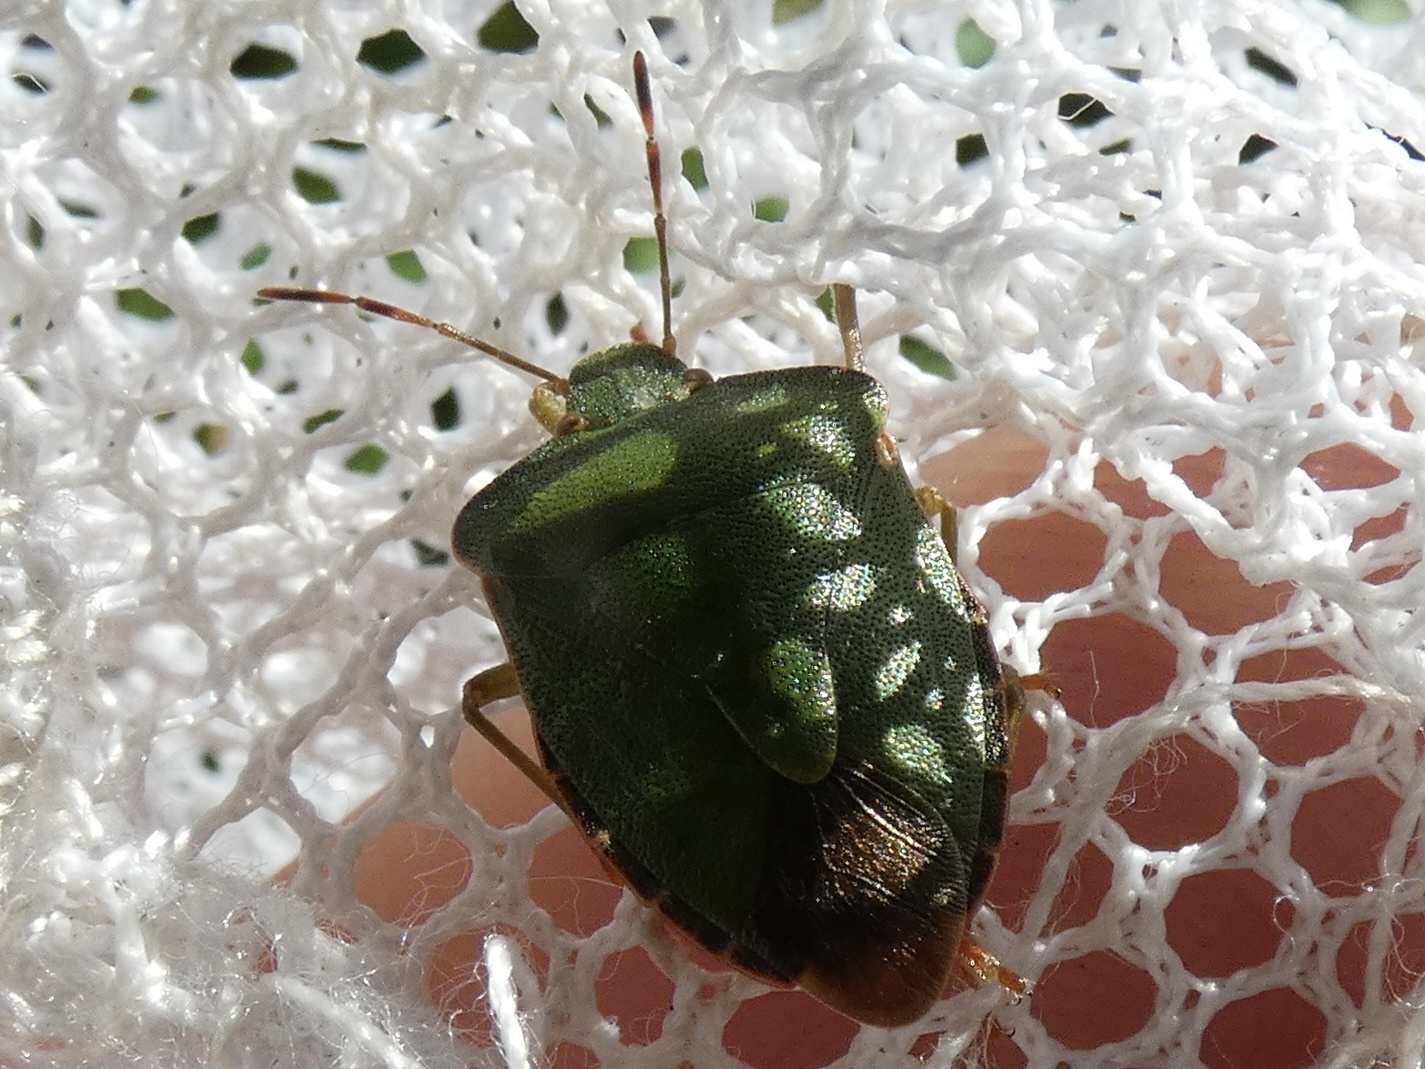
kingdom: Animalia
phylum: Arthropoda
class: Insecta
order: Hemiptera
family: Pentatomidae
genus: Palomena
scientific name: Palomena prasina
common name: Green shieldbug
